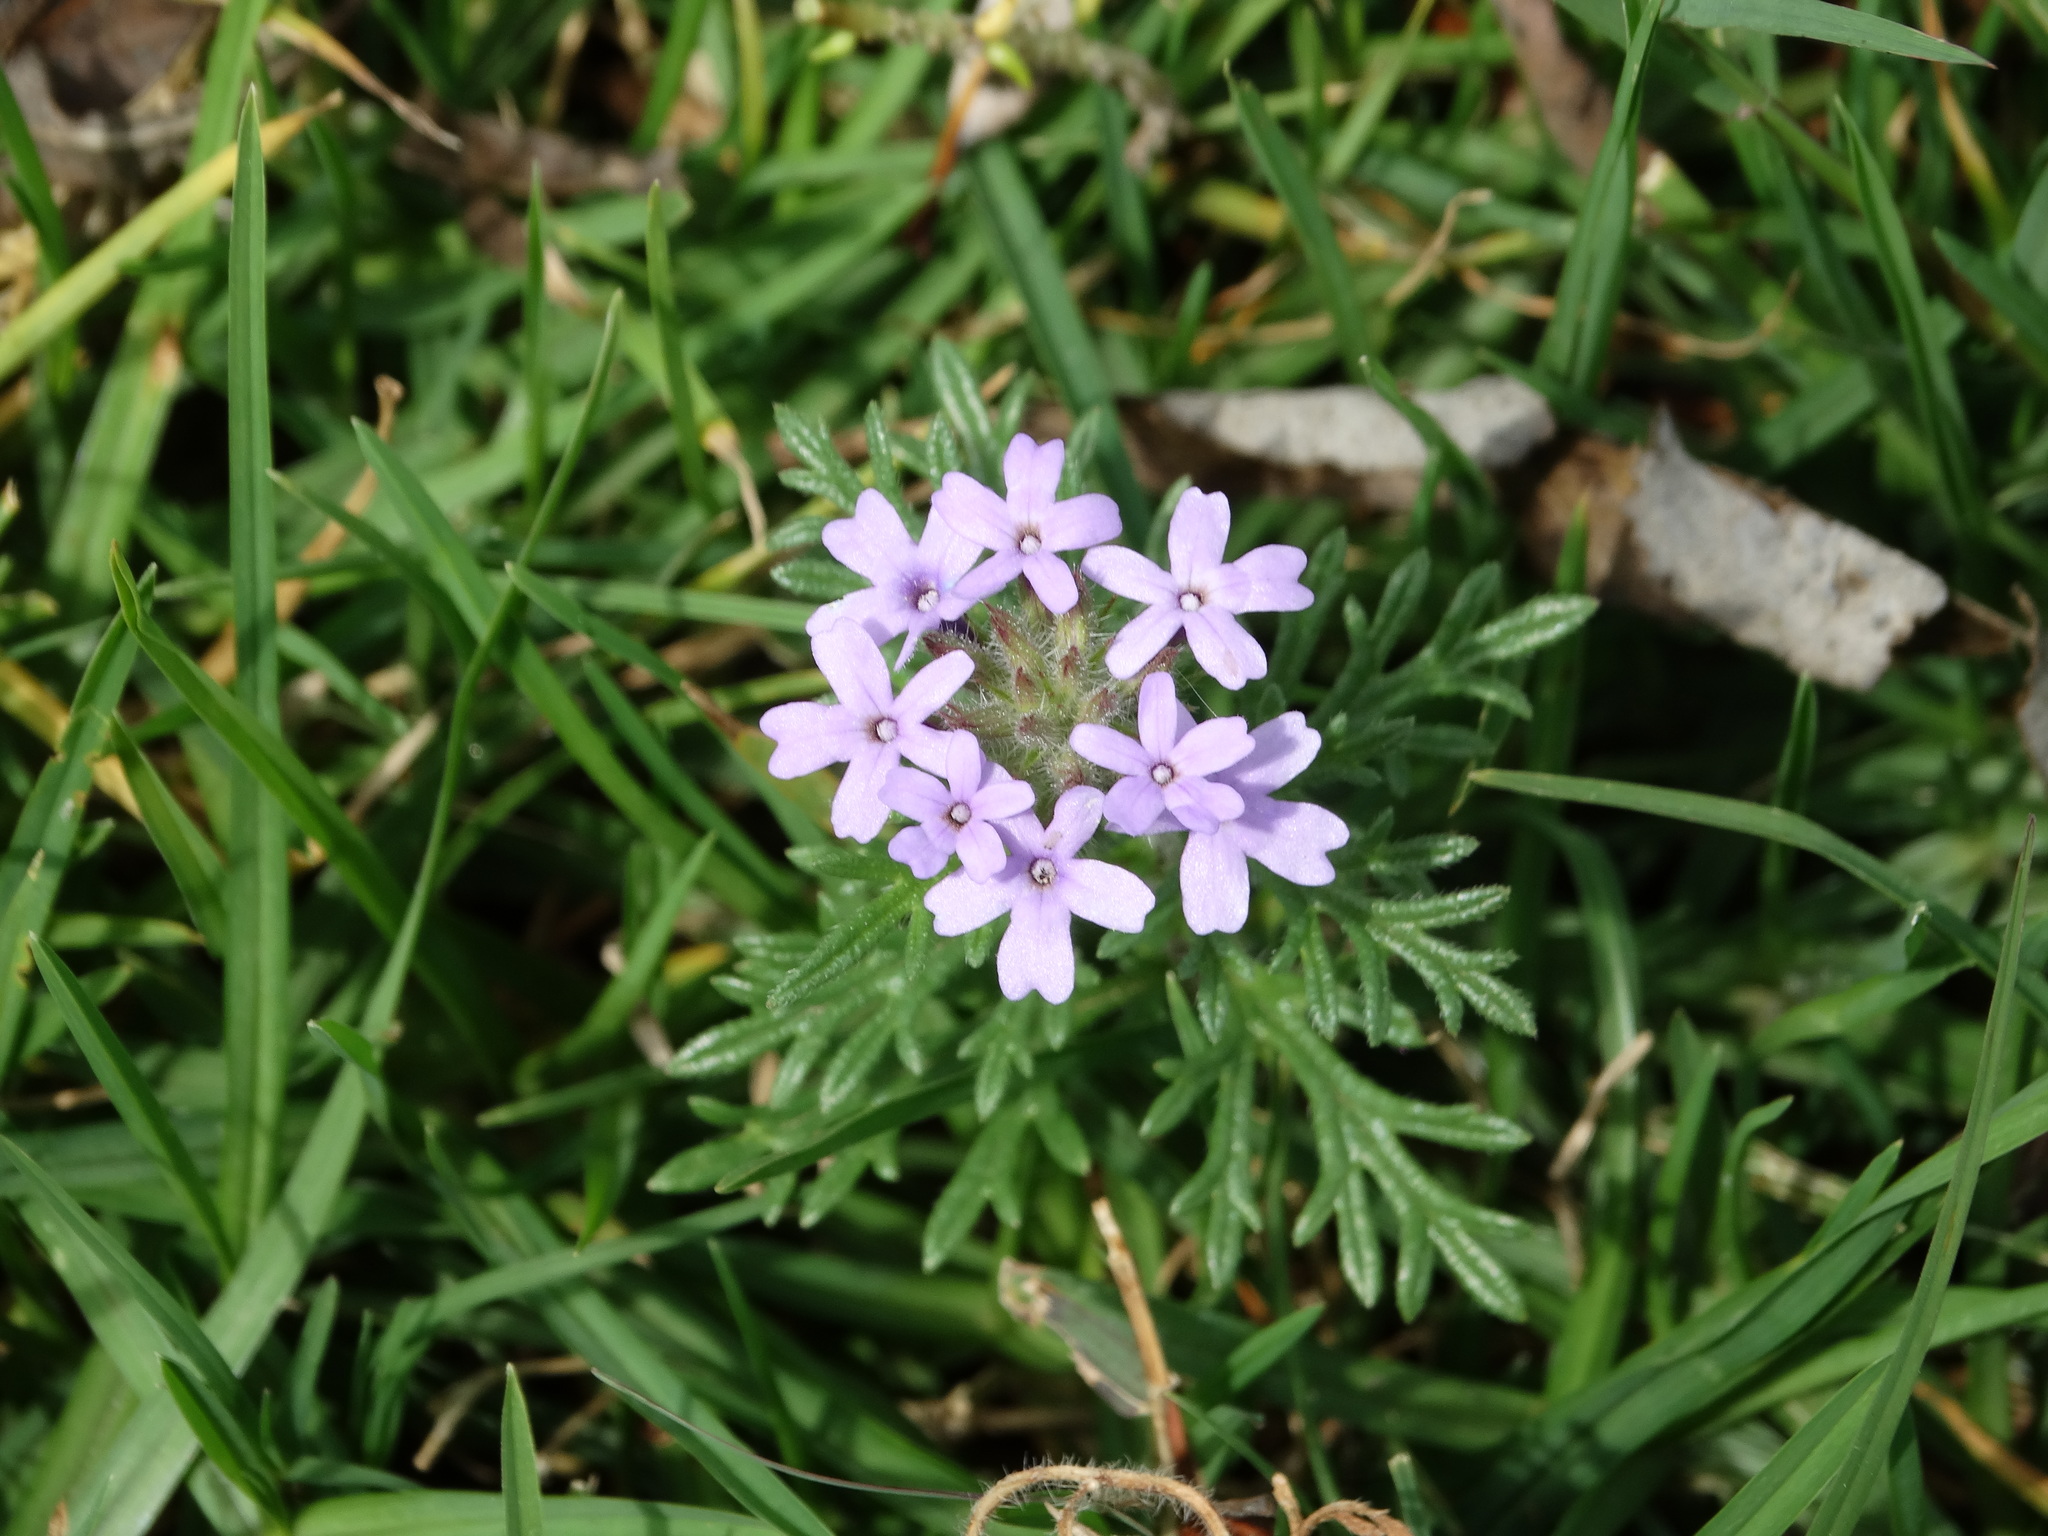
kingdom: Plantae
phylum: Tracheophyta
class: Magnoliopsida
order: Lamiales
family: Verbenaceae
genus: Verbena
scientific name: Verbena bipinnatifida
